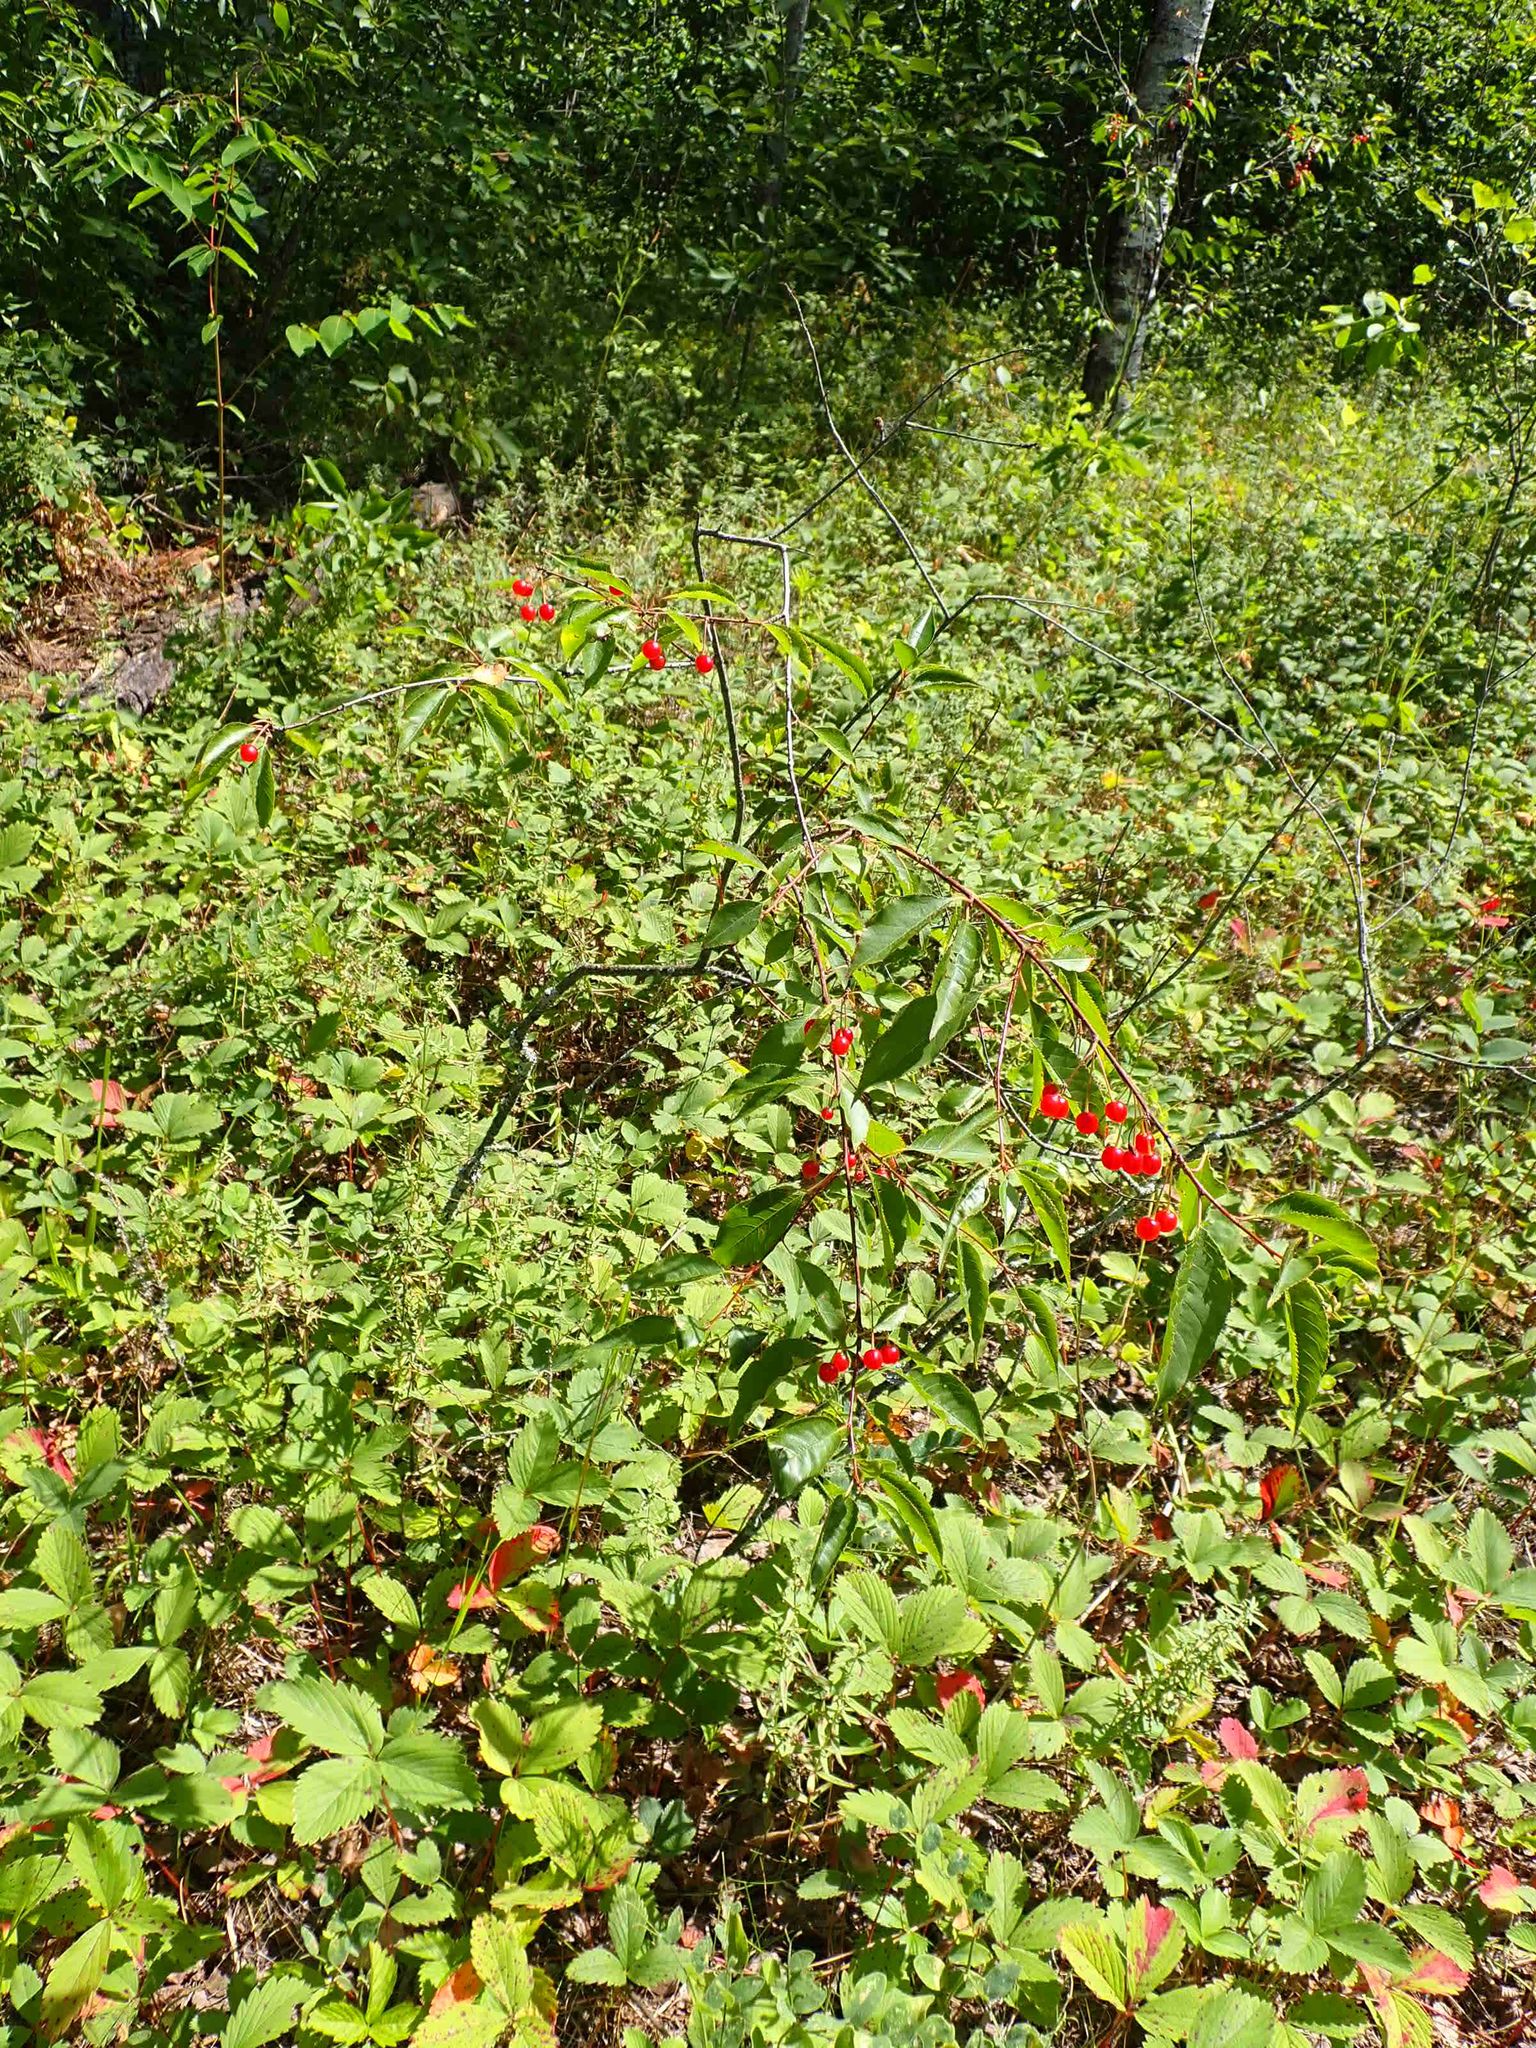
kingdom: Plantae
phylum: Tracheophyta
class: Magnoliopsida
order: Rosales
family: Rosaceae
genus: Prunus
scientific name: Prunus pensylvanica
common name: Pin cherry
